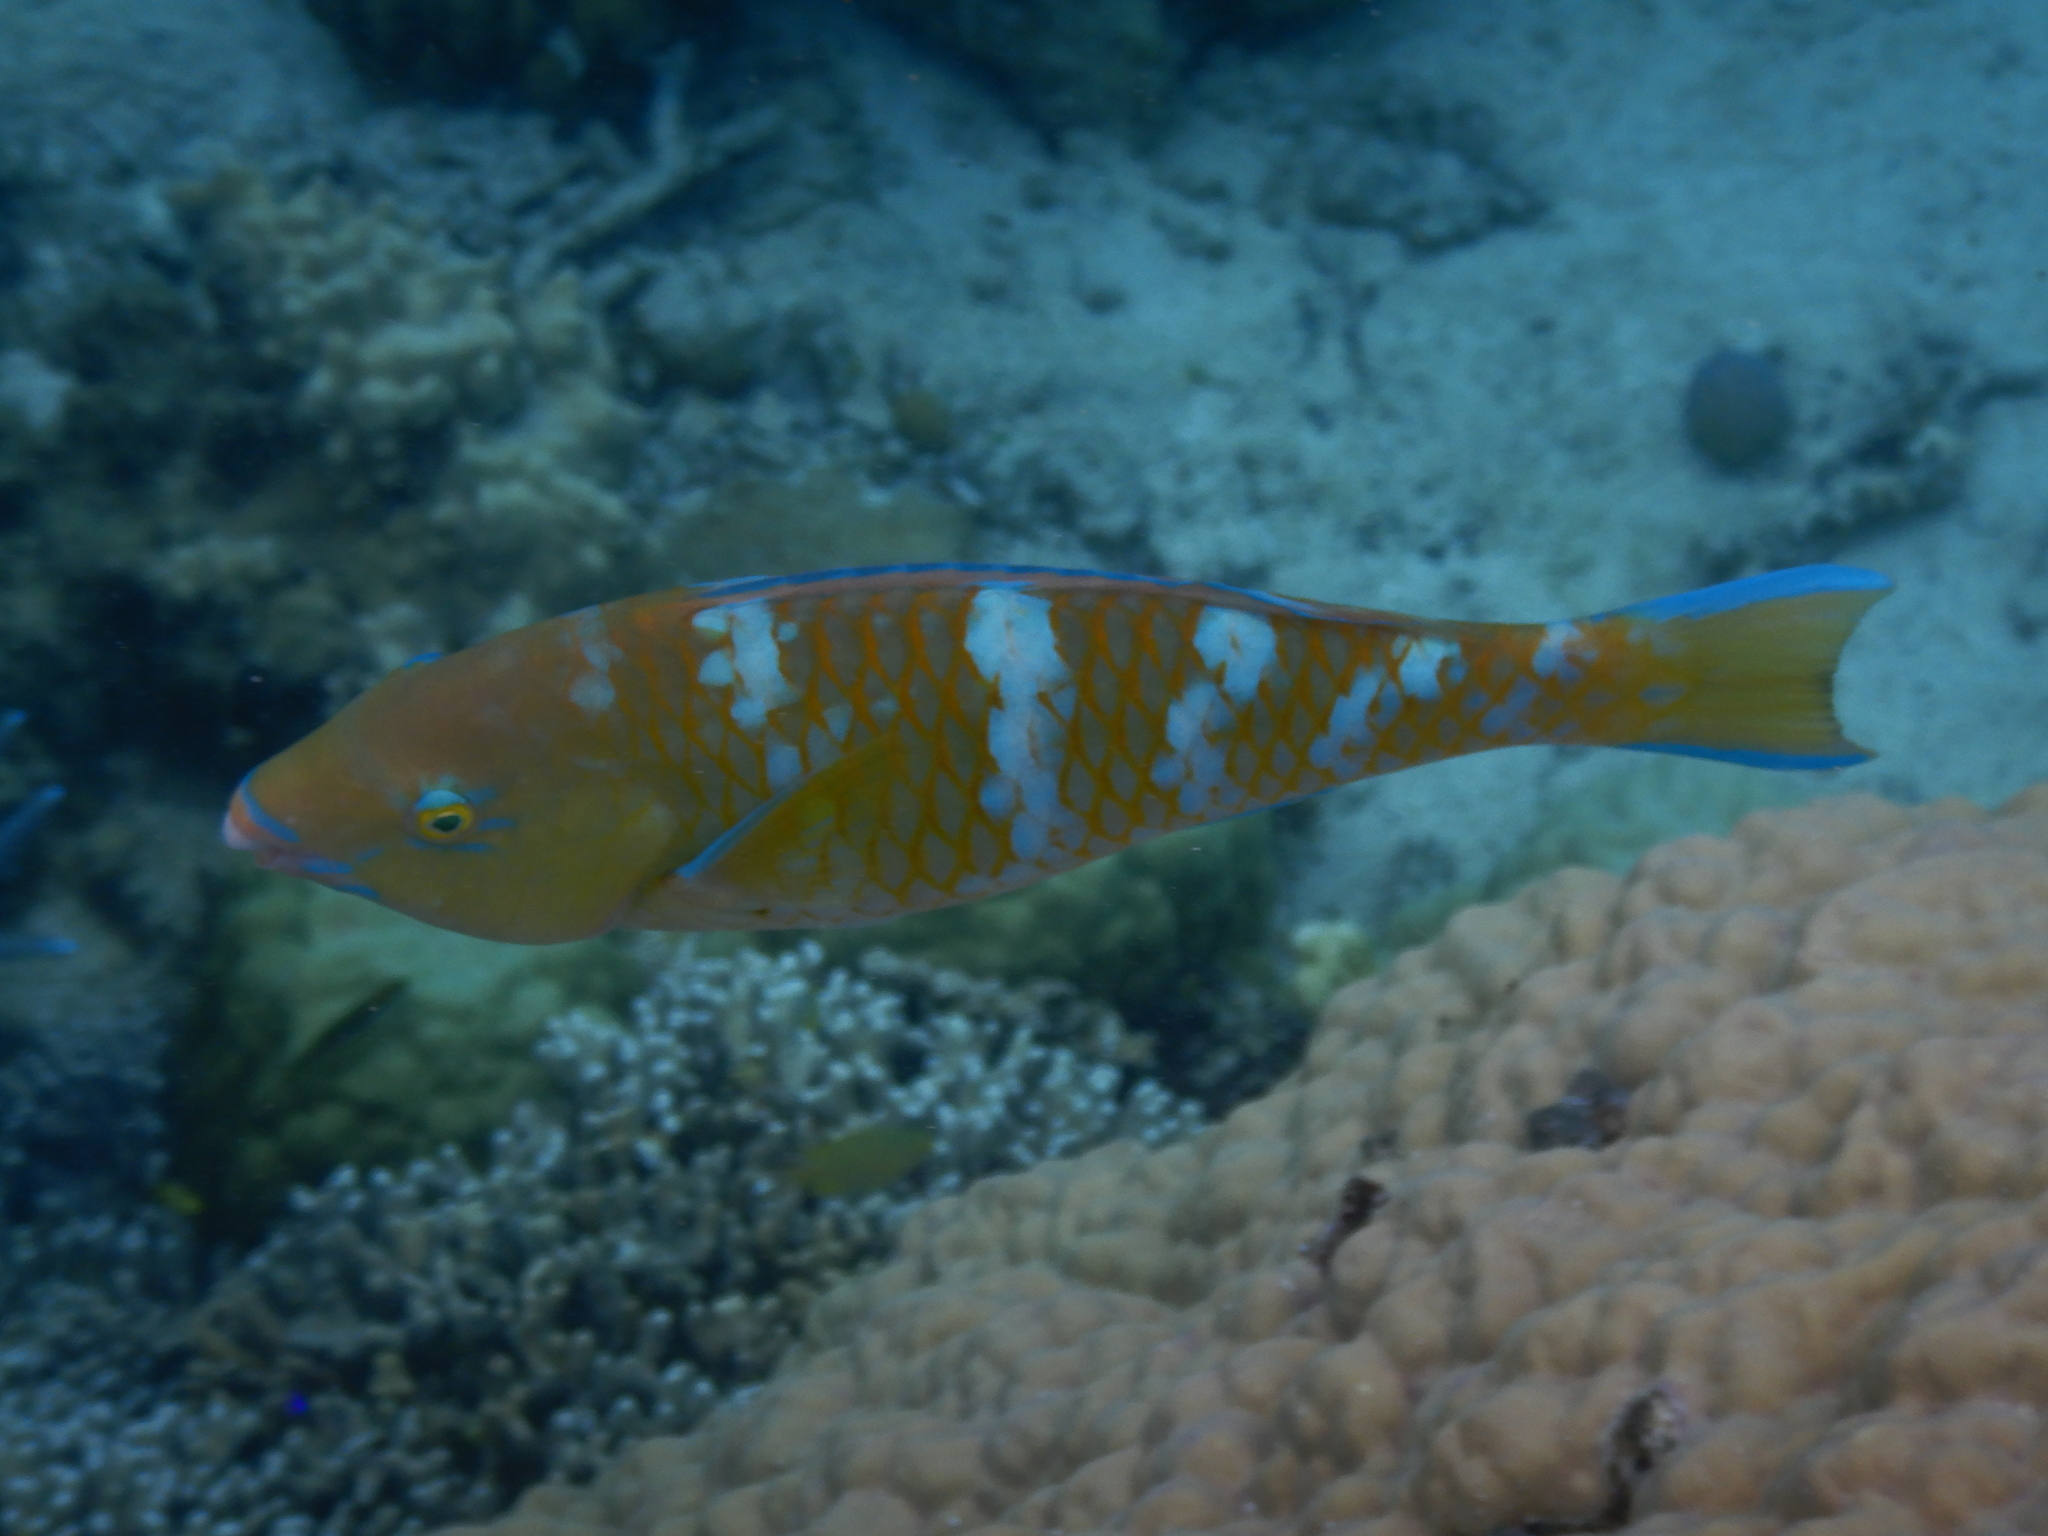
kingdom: Animalia
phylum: Chordata
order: Perciformes
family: Scaridae
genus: Scarus
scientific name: Scarus ghobban
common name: Blue-barred parrotfish
